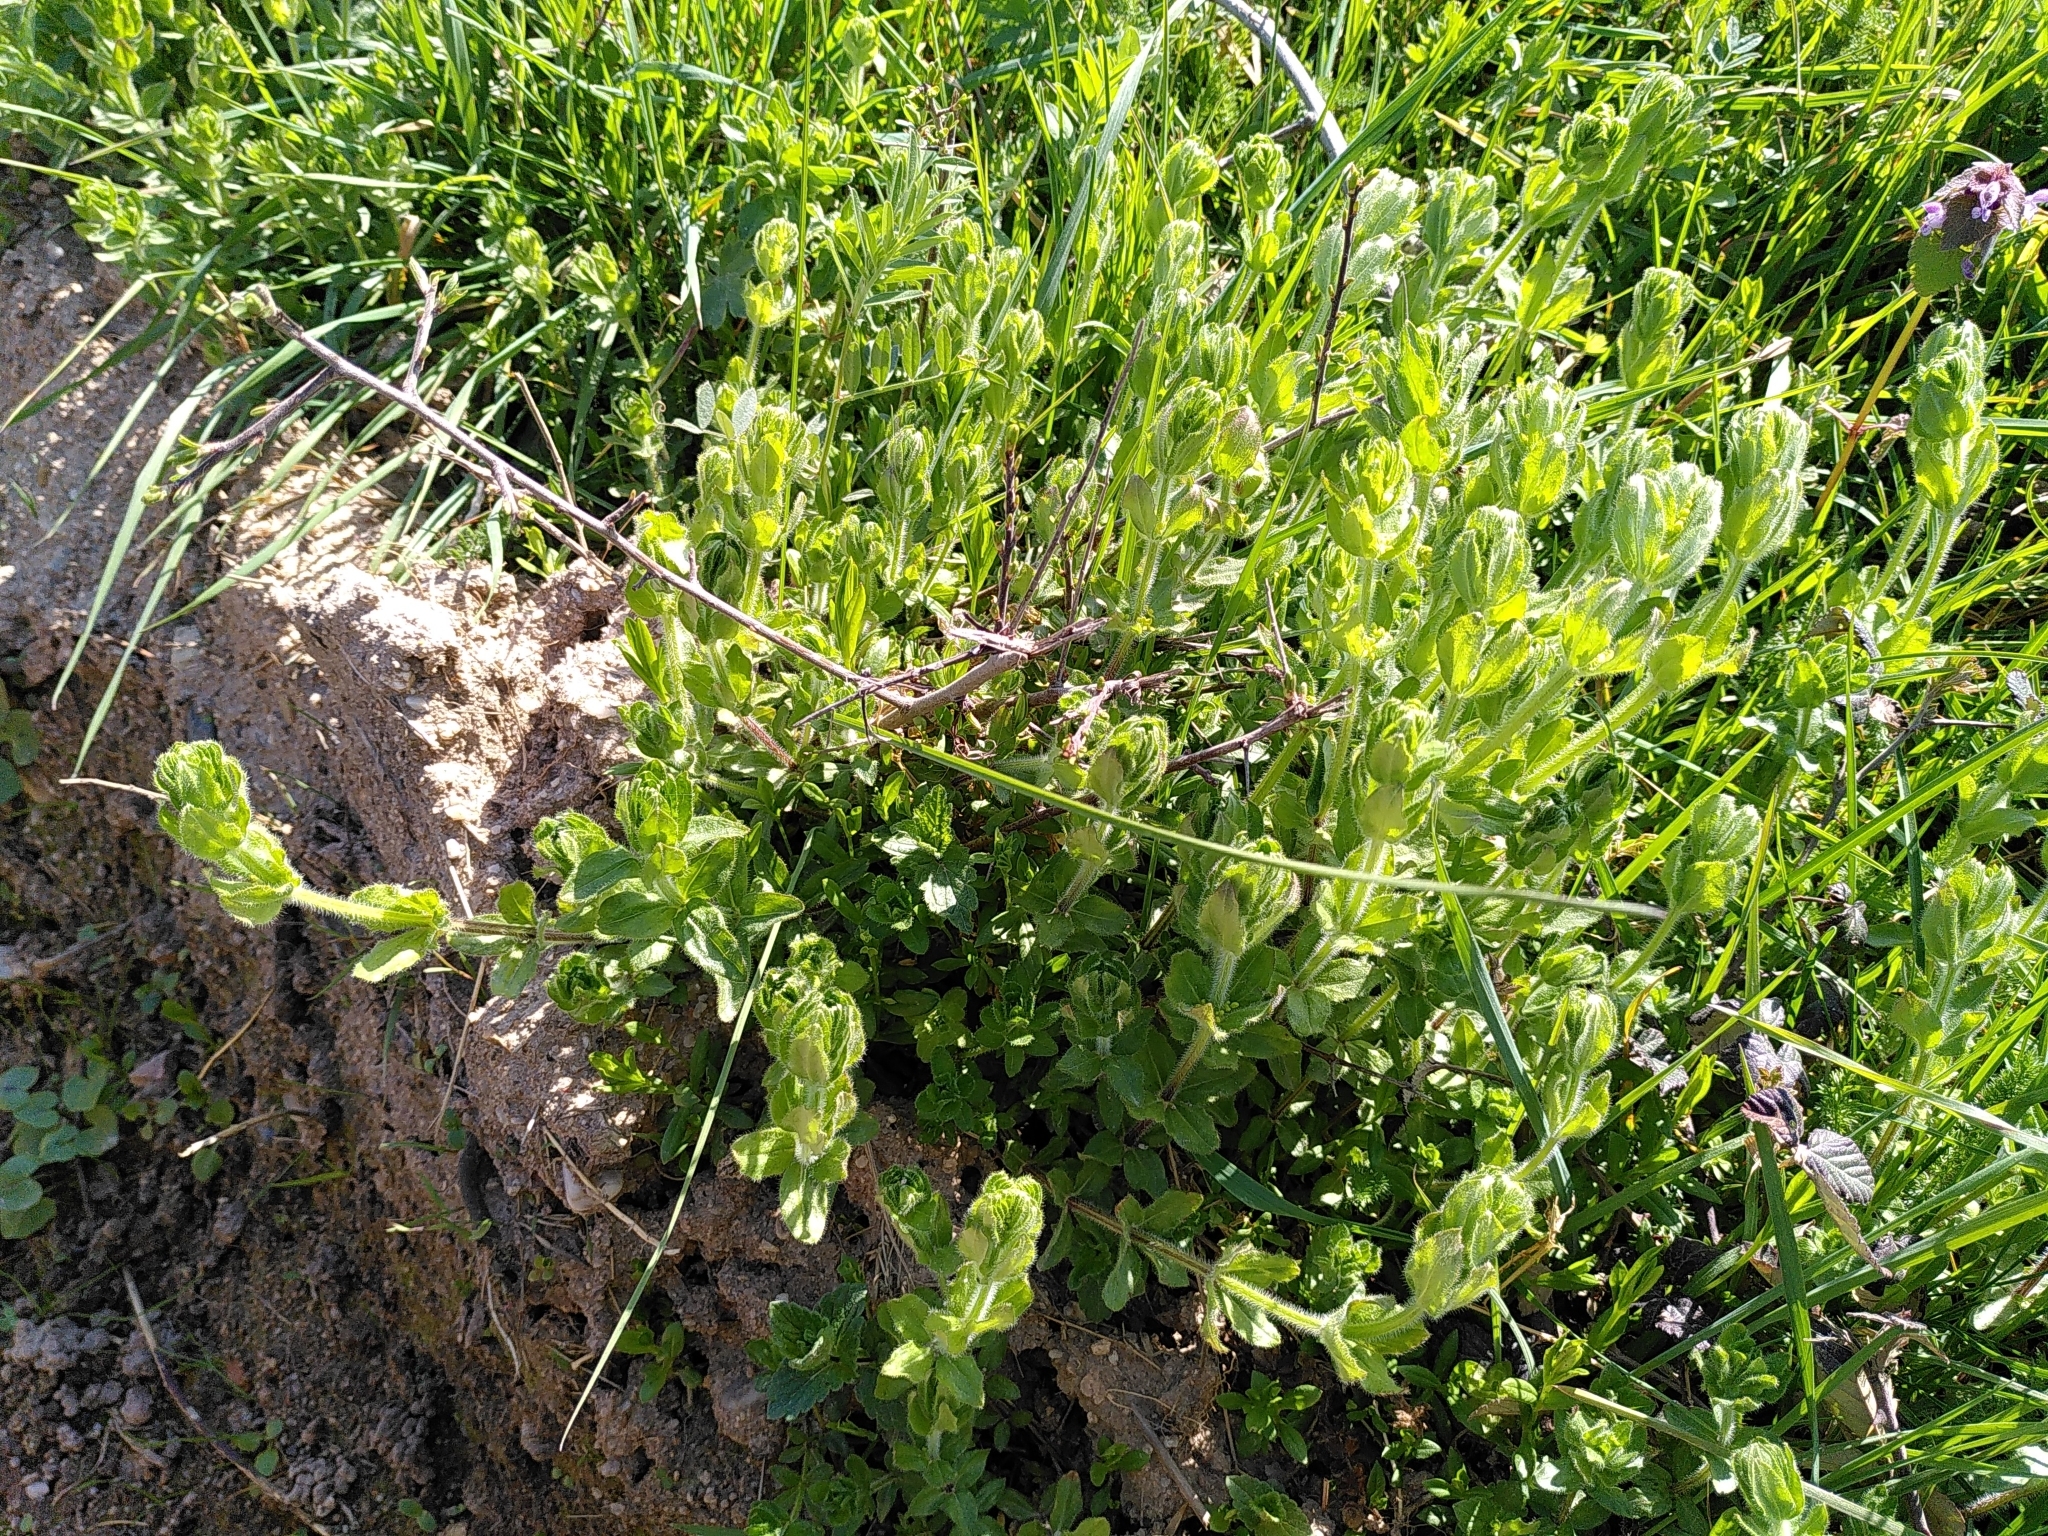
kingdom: Plantae
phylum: Tracheophyta
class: Magnoliopsida
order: Gentianales
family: Rubiaceae
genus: Cruciata
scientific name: Cruciata laevipes
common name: Crosswort
